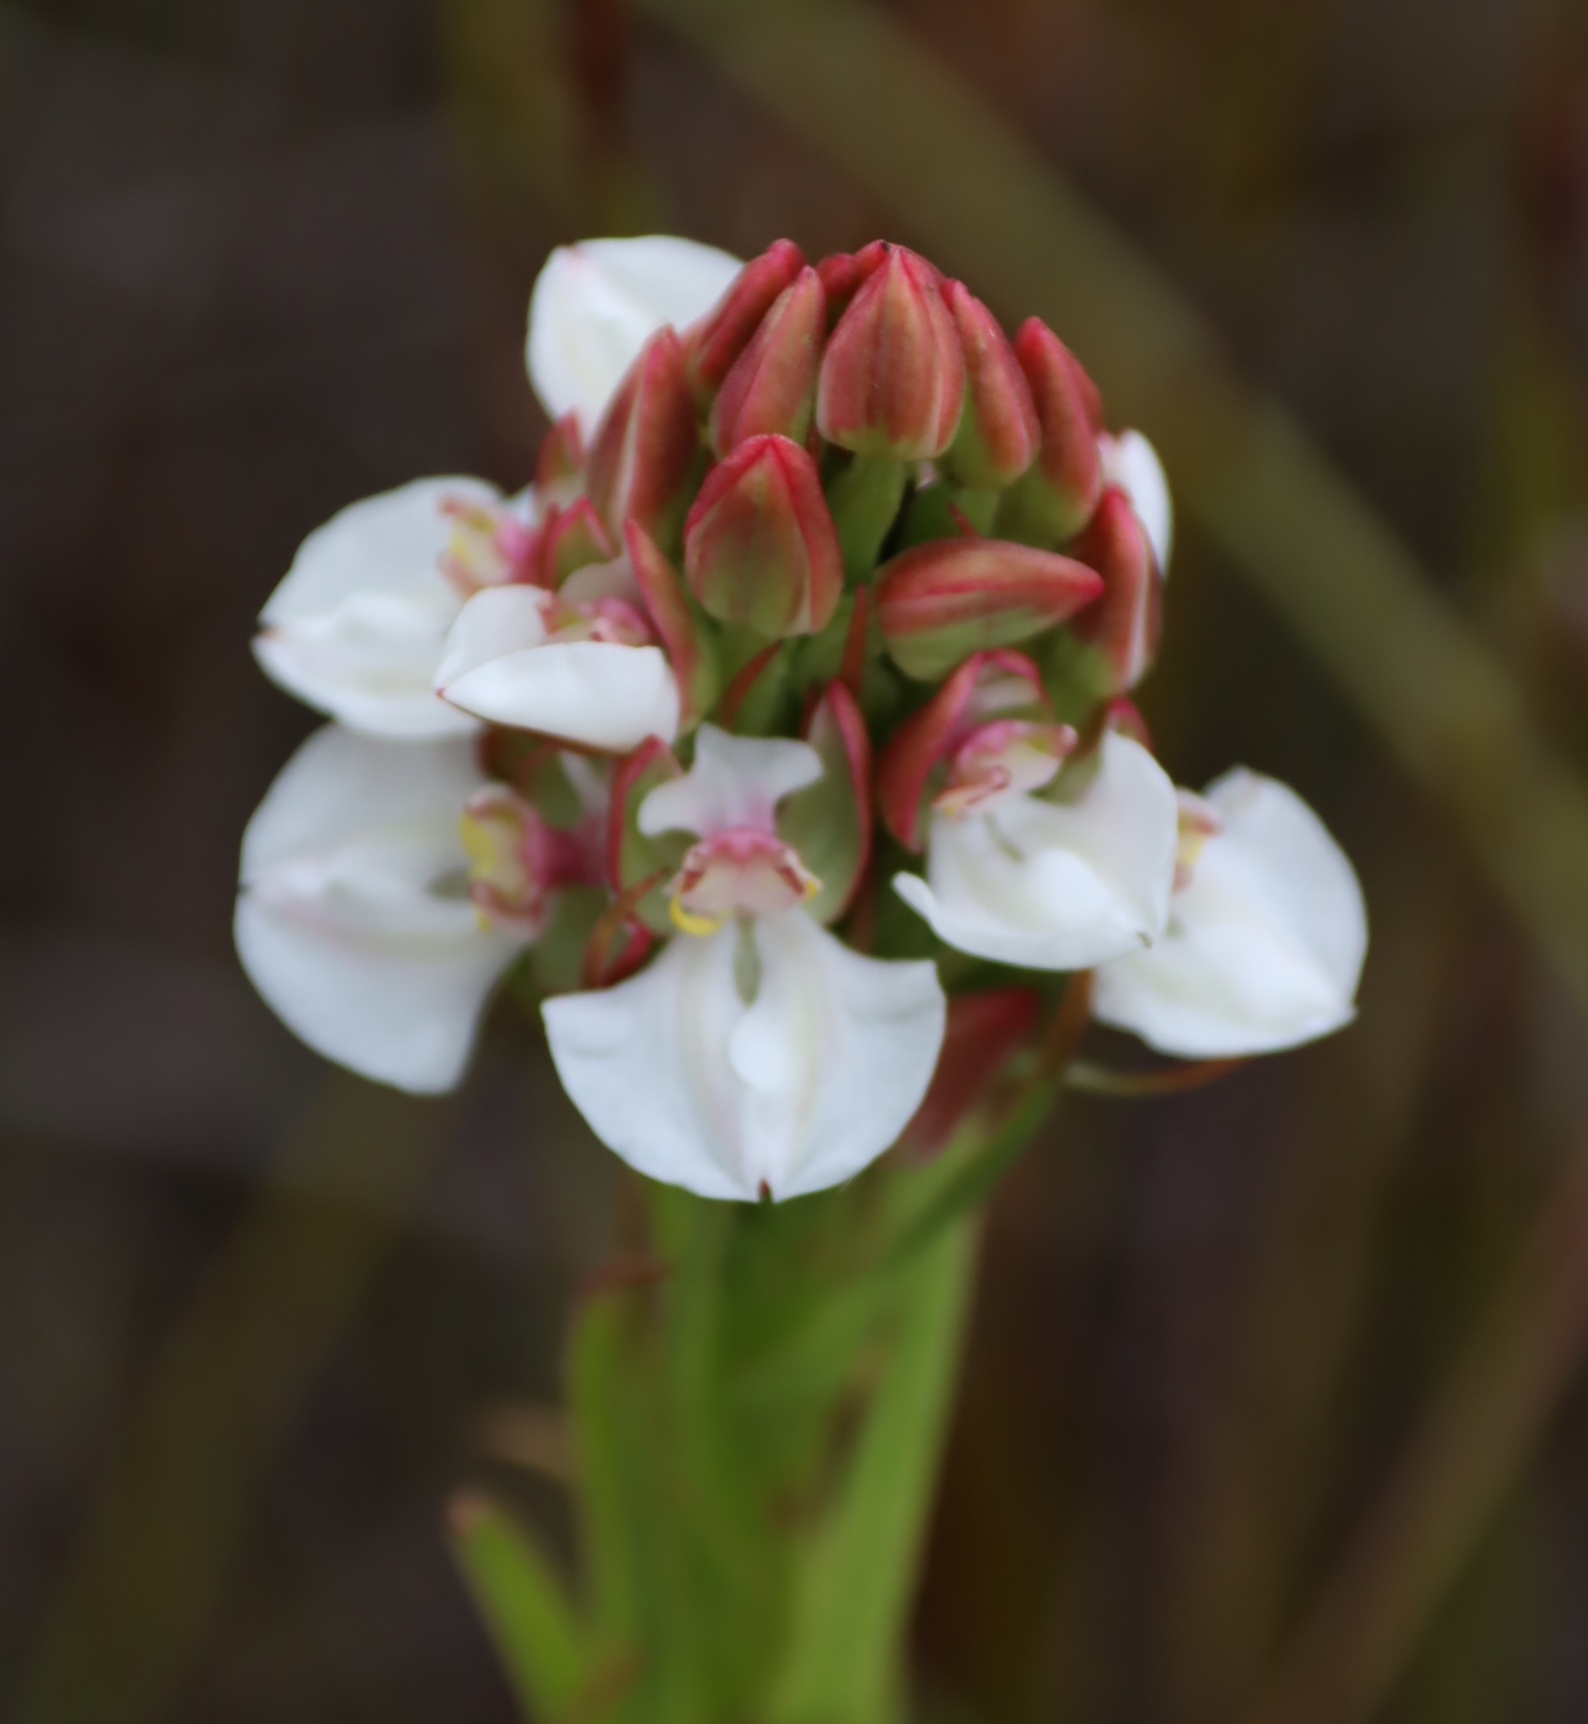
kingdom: Plantae
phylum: Tracheophyta
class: Liliopsida
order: Asparagales
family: Orchidaceae
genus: Ceratandra
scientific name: Ceratandra globosa
